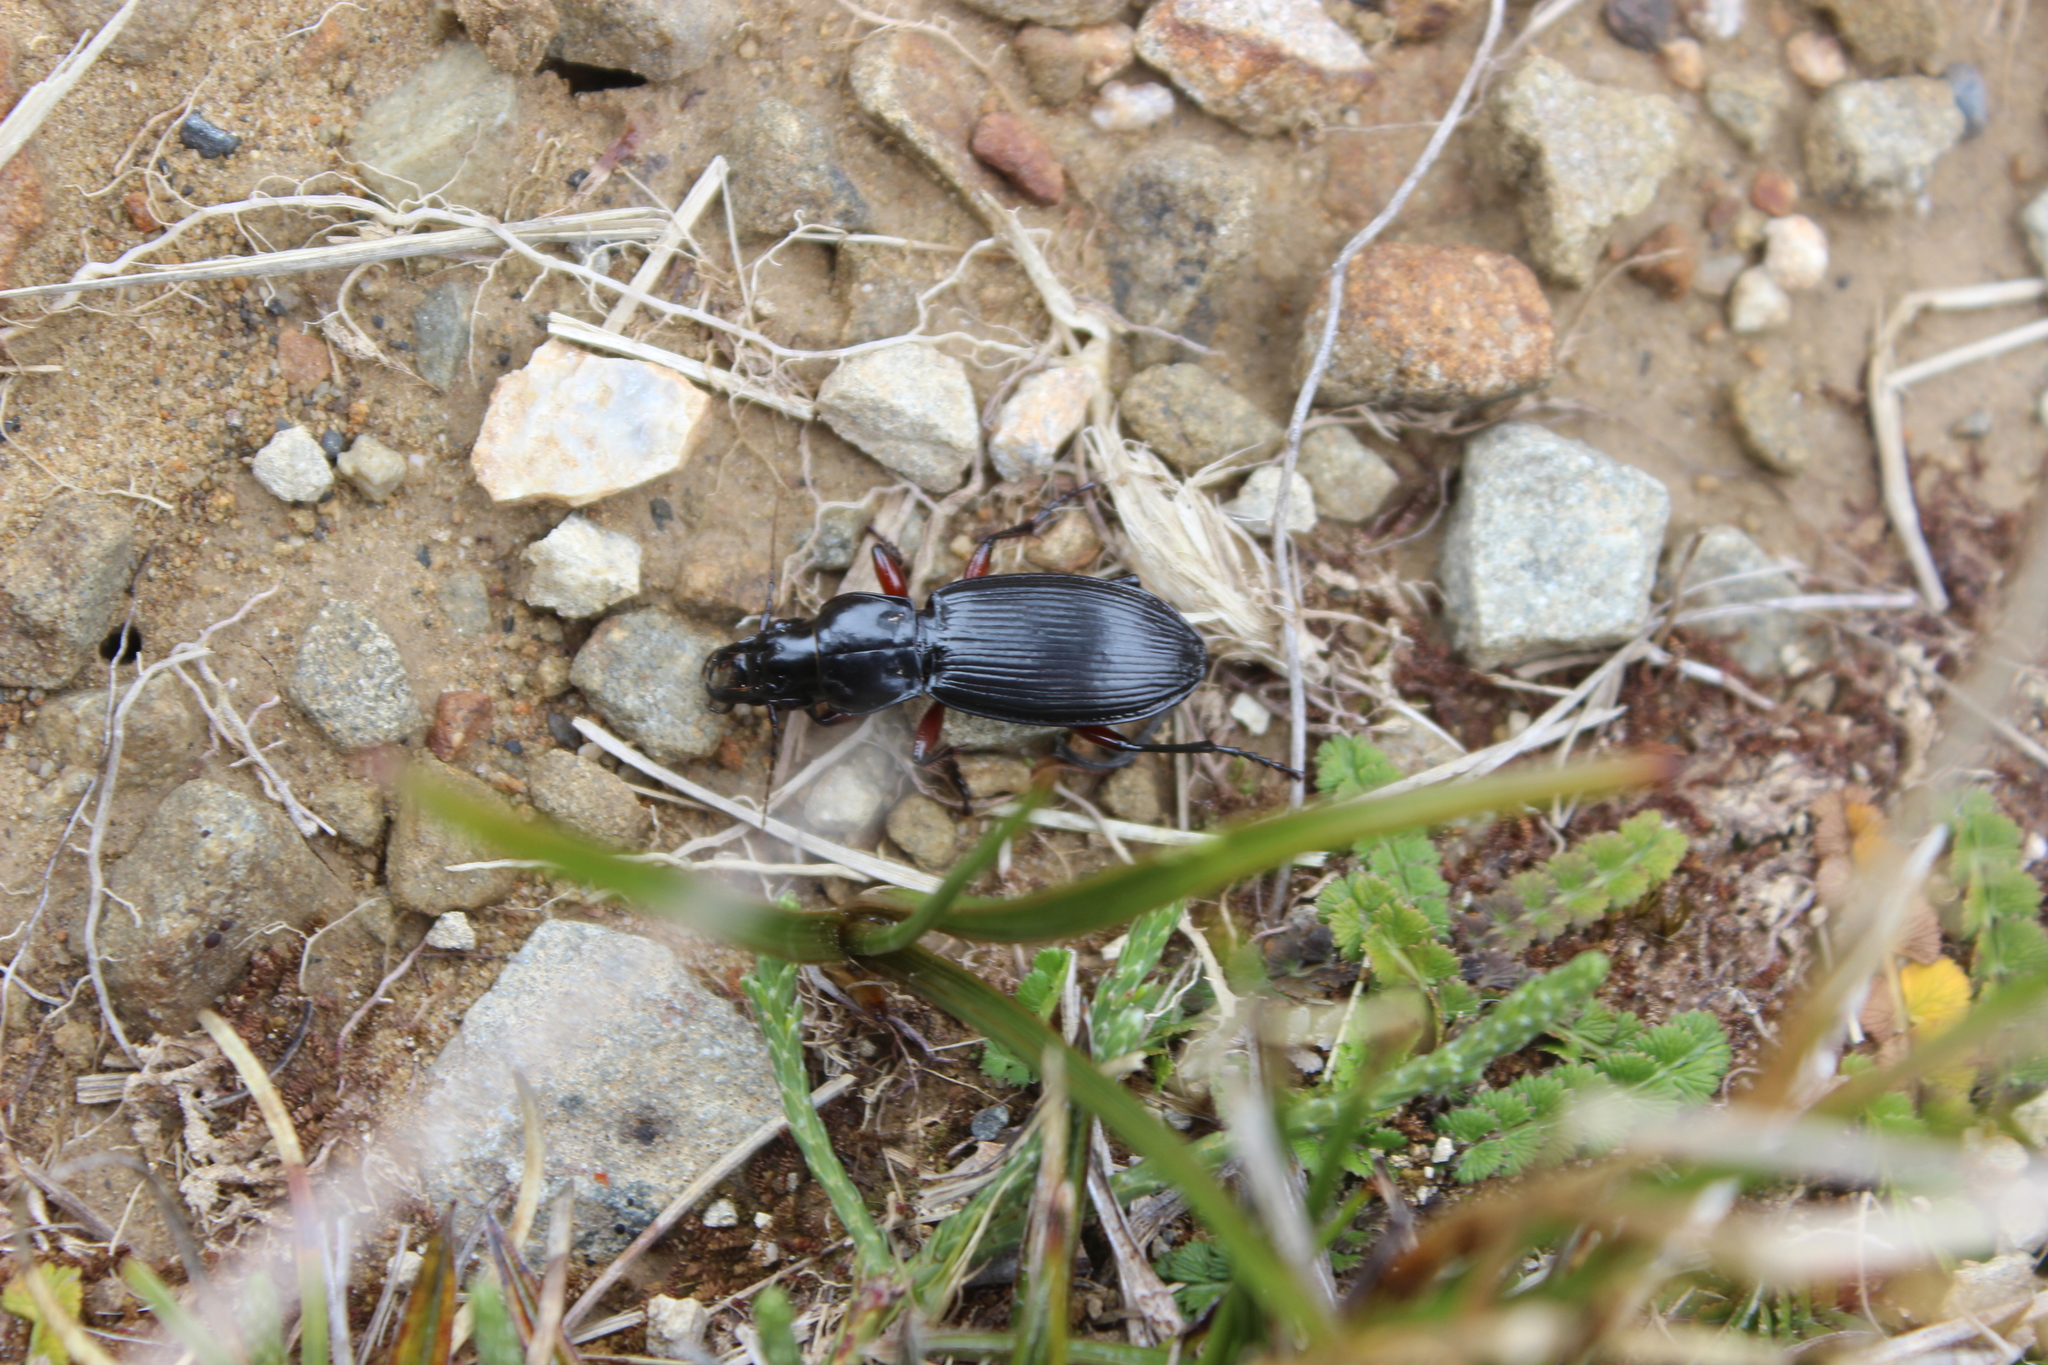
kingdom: Animalia
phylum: Arthropoda
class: Insecta
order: Coleoptera
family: Carabidae
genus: Plocamostethus
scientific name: Plocamostethus planiusculus
